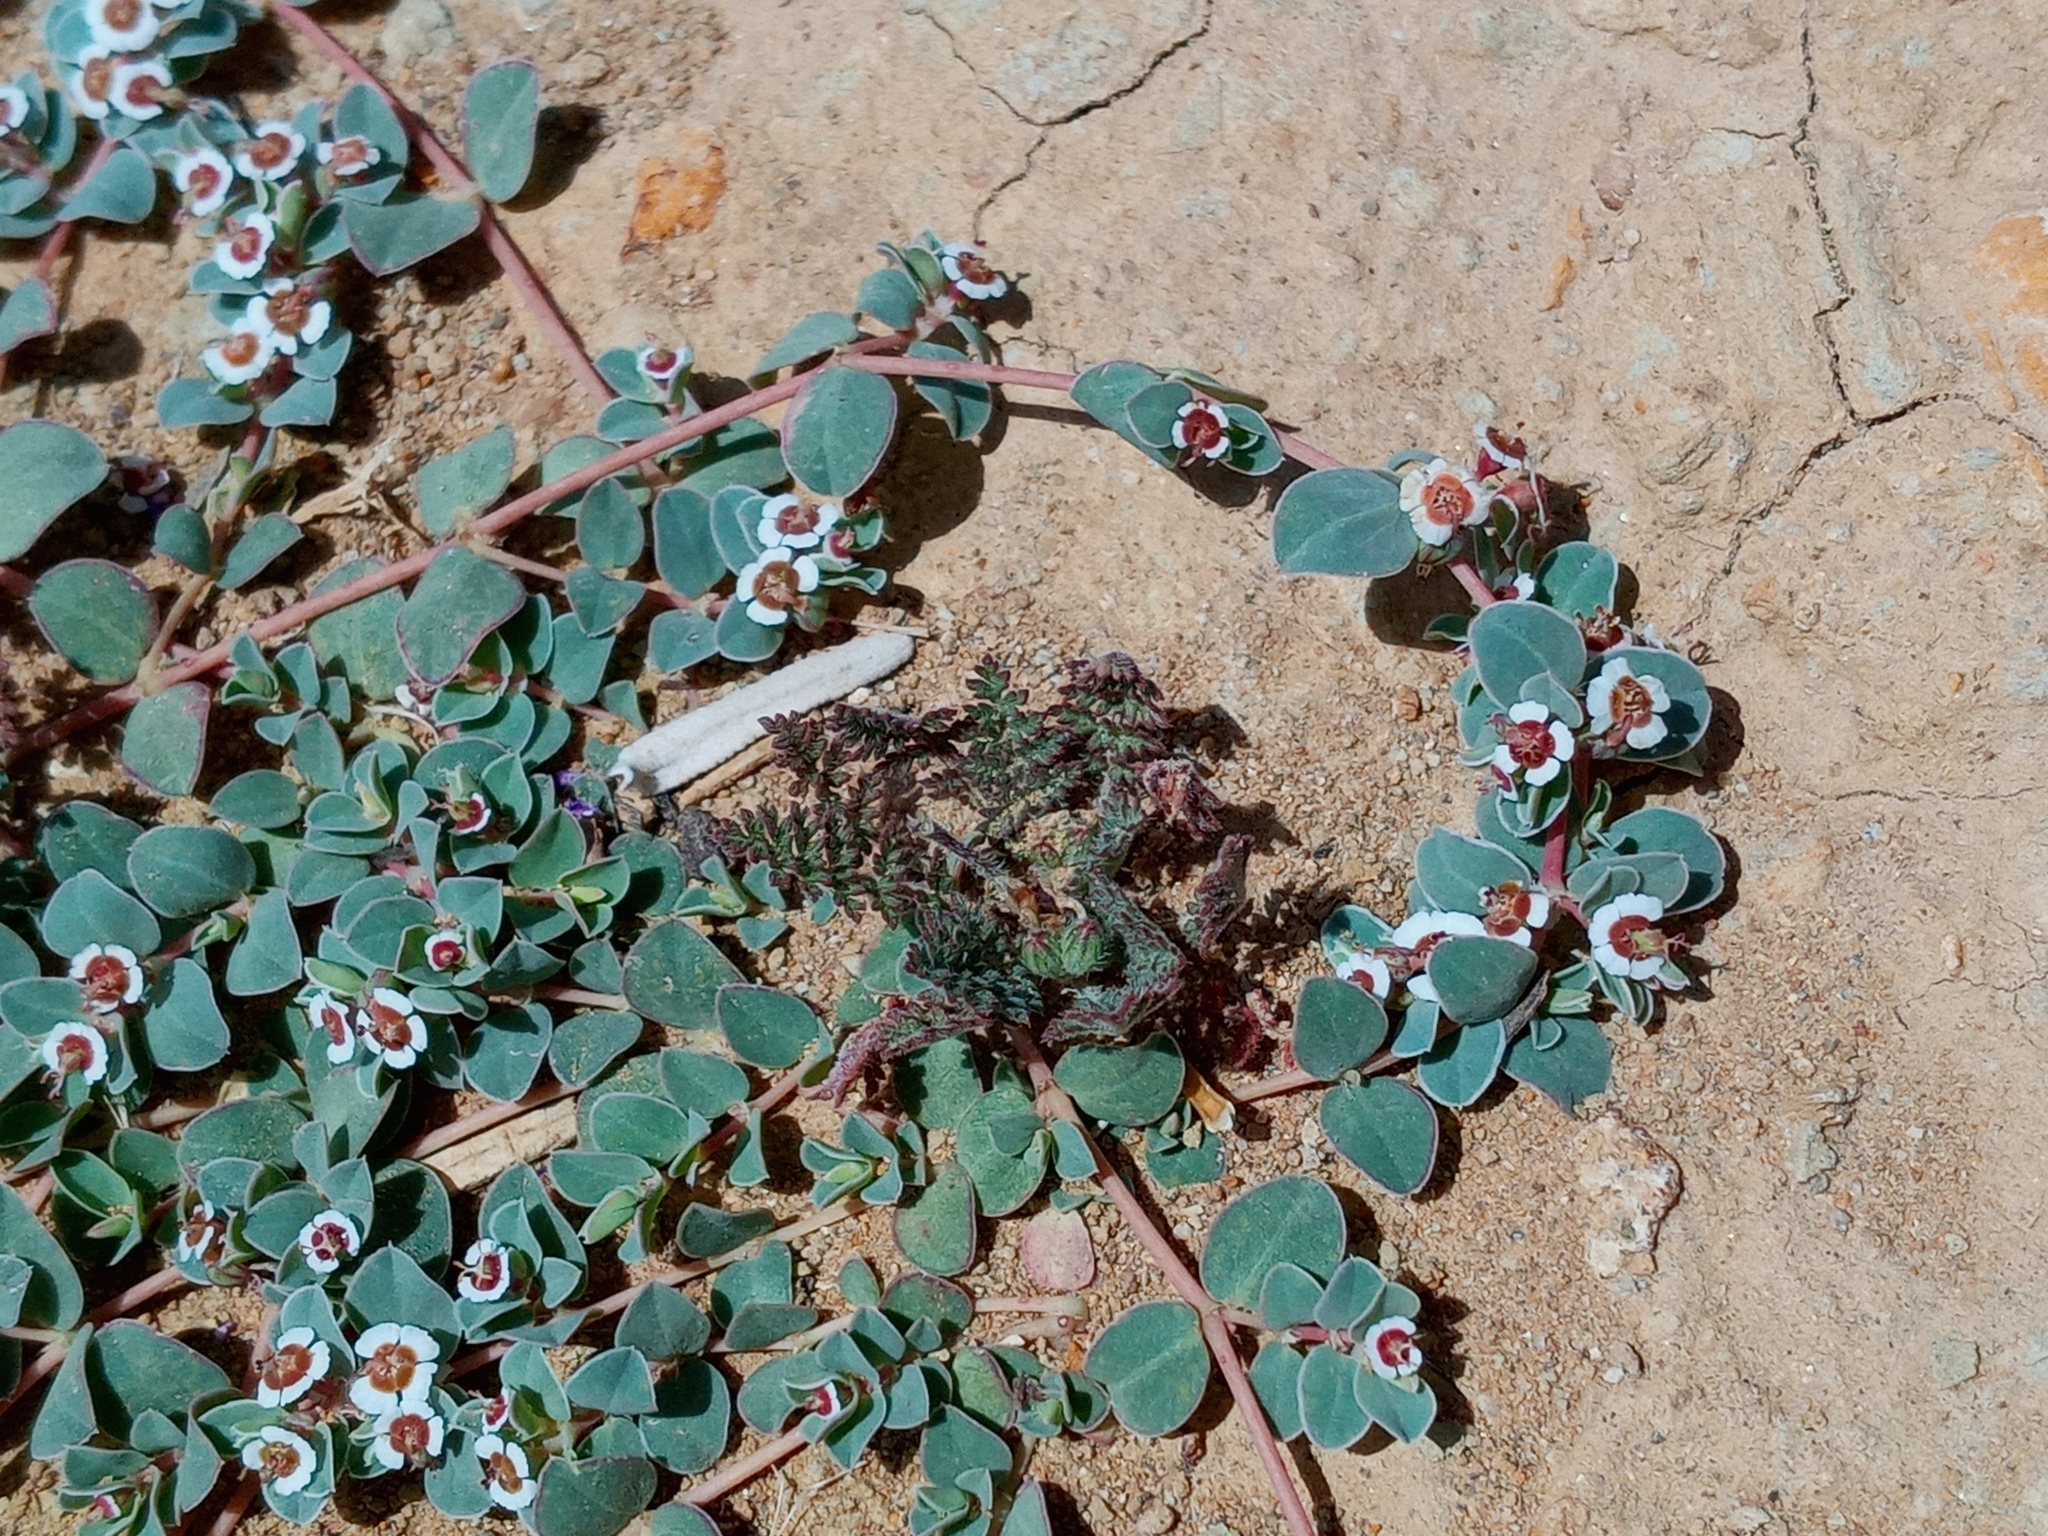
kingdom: Plantae
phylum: Tracheophyta
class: Magnoliopsida
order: Malpighiales
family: Euphorbiaceae
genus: Euphorbia
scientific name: Euphorbia albomarginata
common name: Whitemargin sandmat
